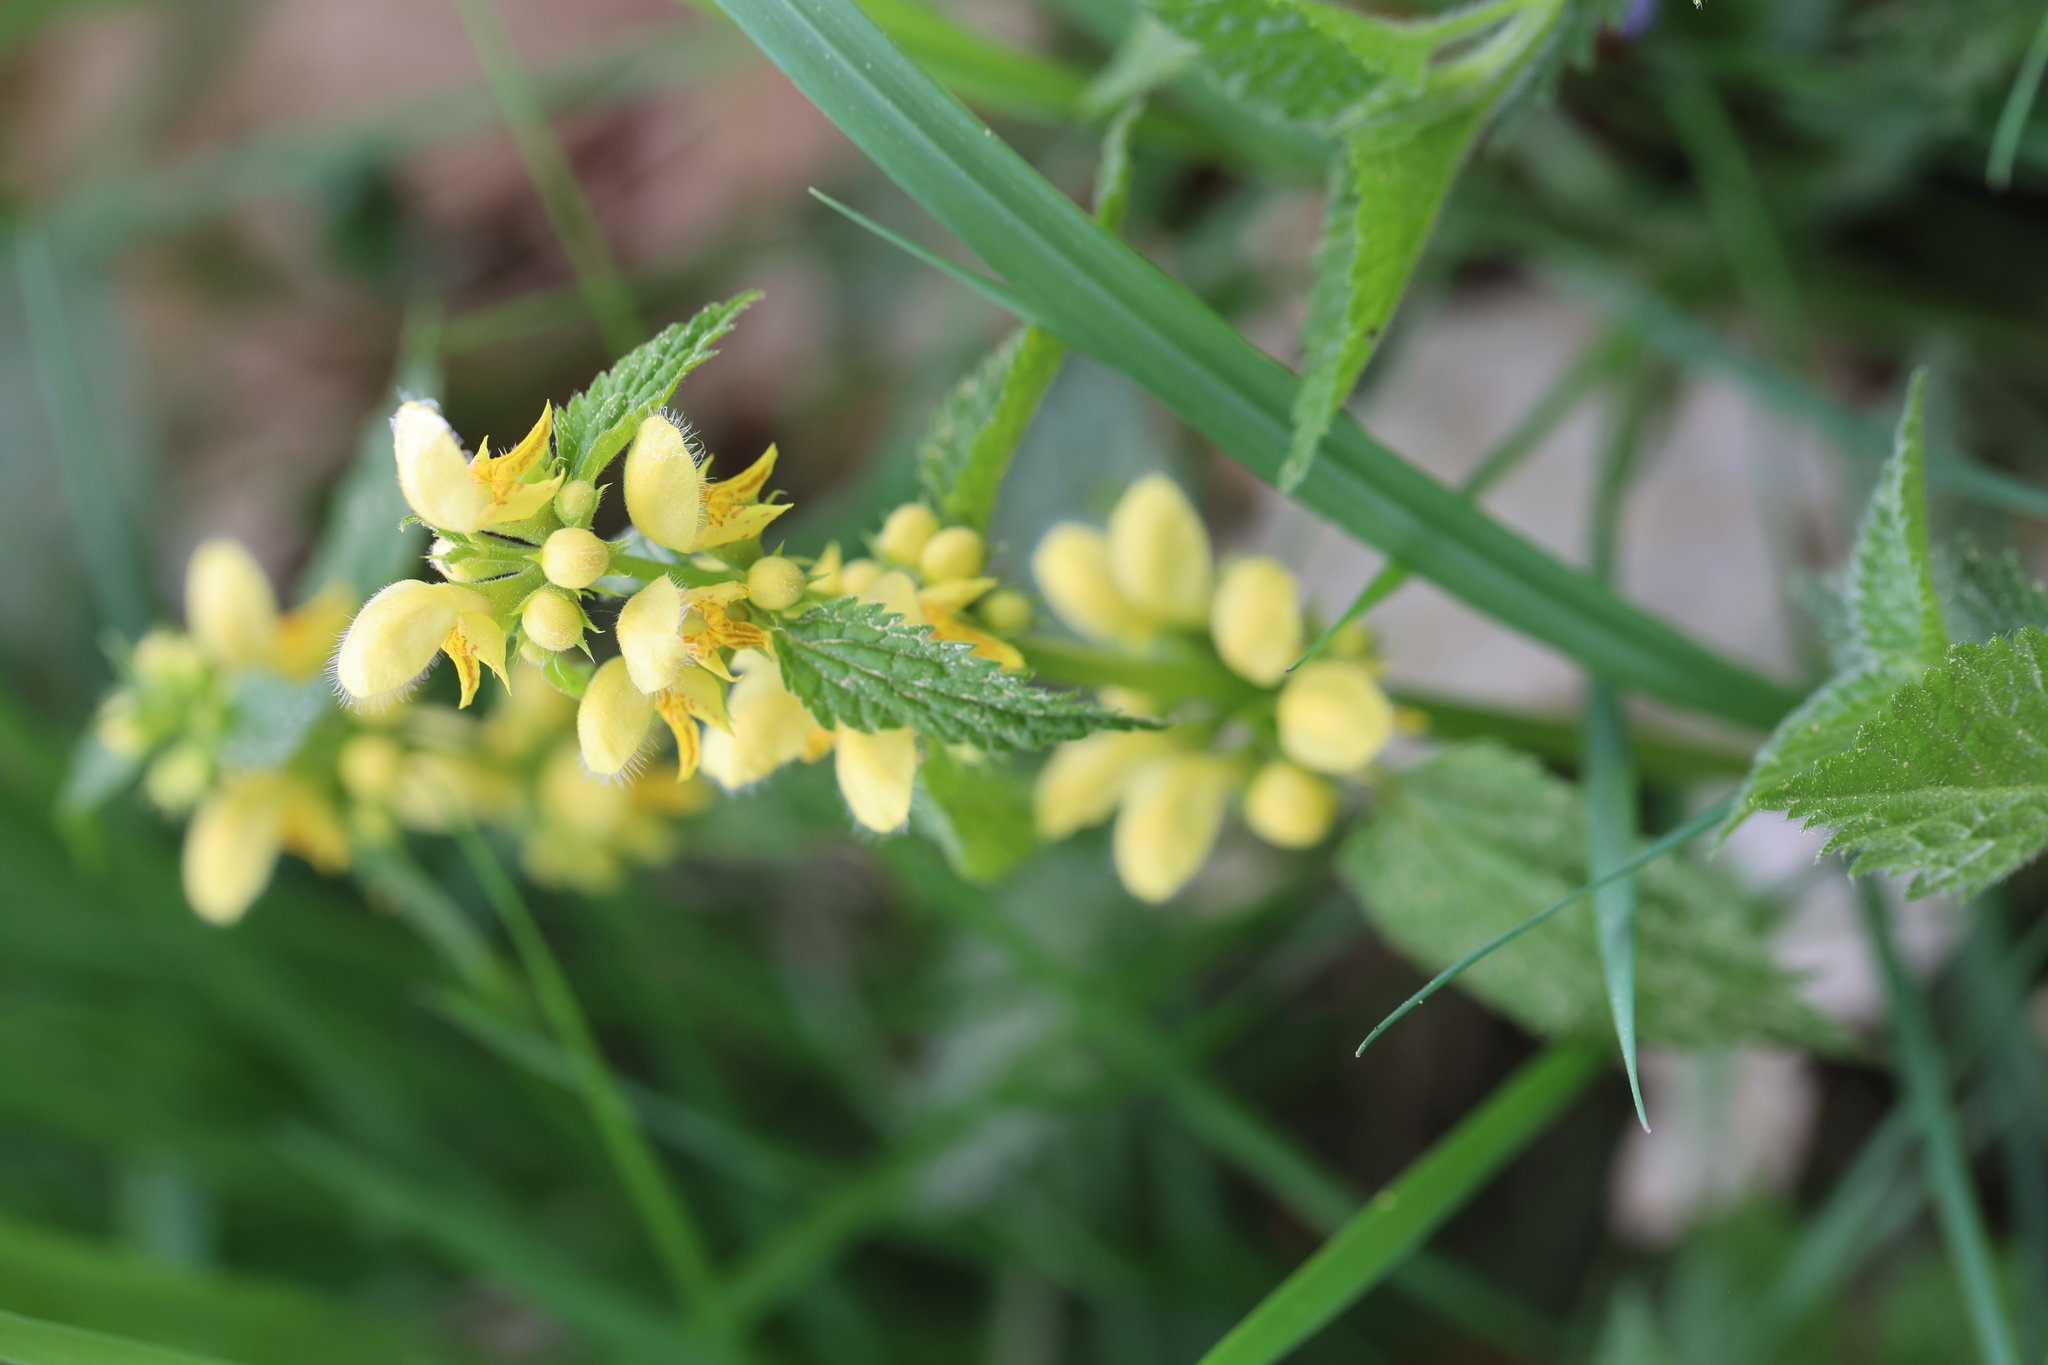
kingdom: Plantae
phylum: Tracheophyta
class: Magnoliopsida
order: Lamiales
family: Lamiaceae
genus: Lamium
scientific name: Lamium galeobdolon
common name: Yellow archangel
